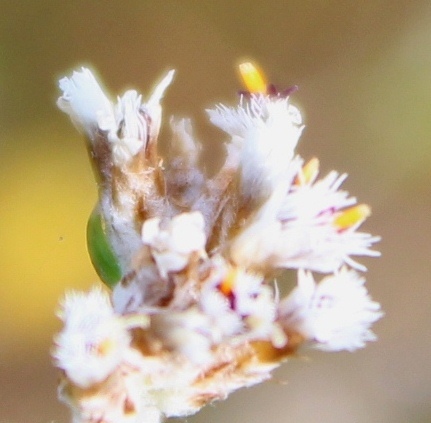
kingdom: Plantae
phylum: Tracheophyta
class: Magnoliopsida
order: Asterales
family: Asteraceae
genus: Metalasia
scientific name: Metalasia pungens
